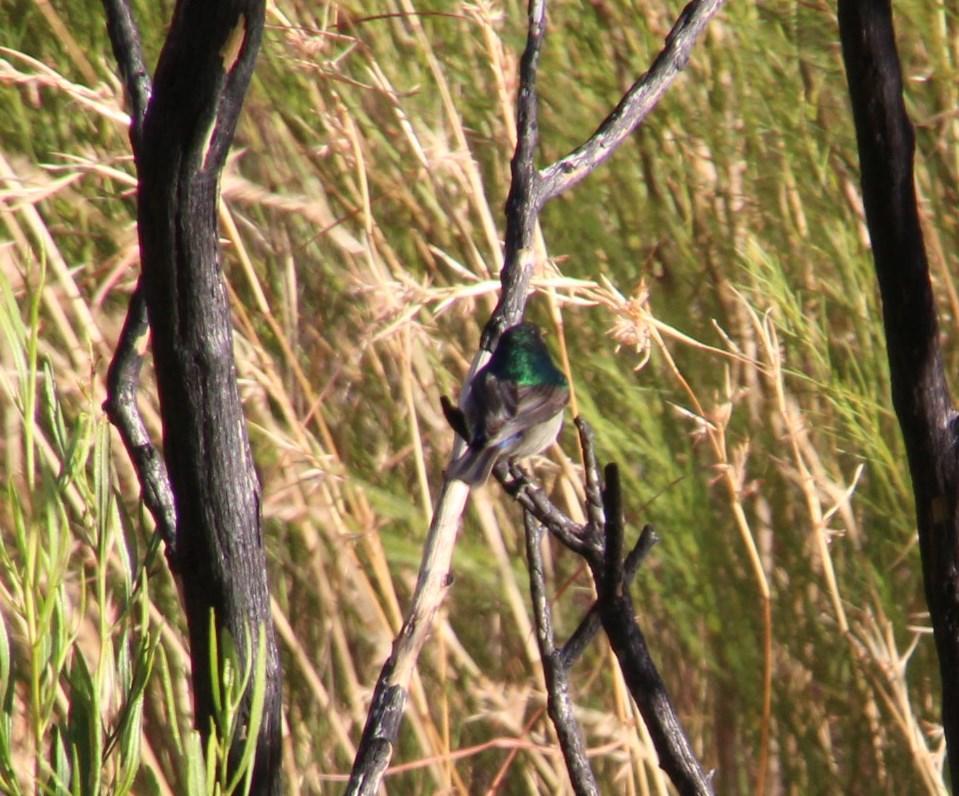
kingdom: Animalia
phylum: Chordata
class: Aves
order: Passeriformes
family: Nectariniidae
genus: Cinnyris
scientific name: Cinnyris chalybeus
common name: Southern double-collared sunbird
